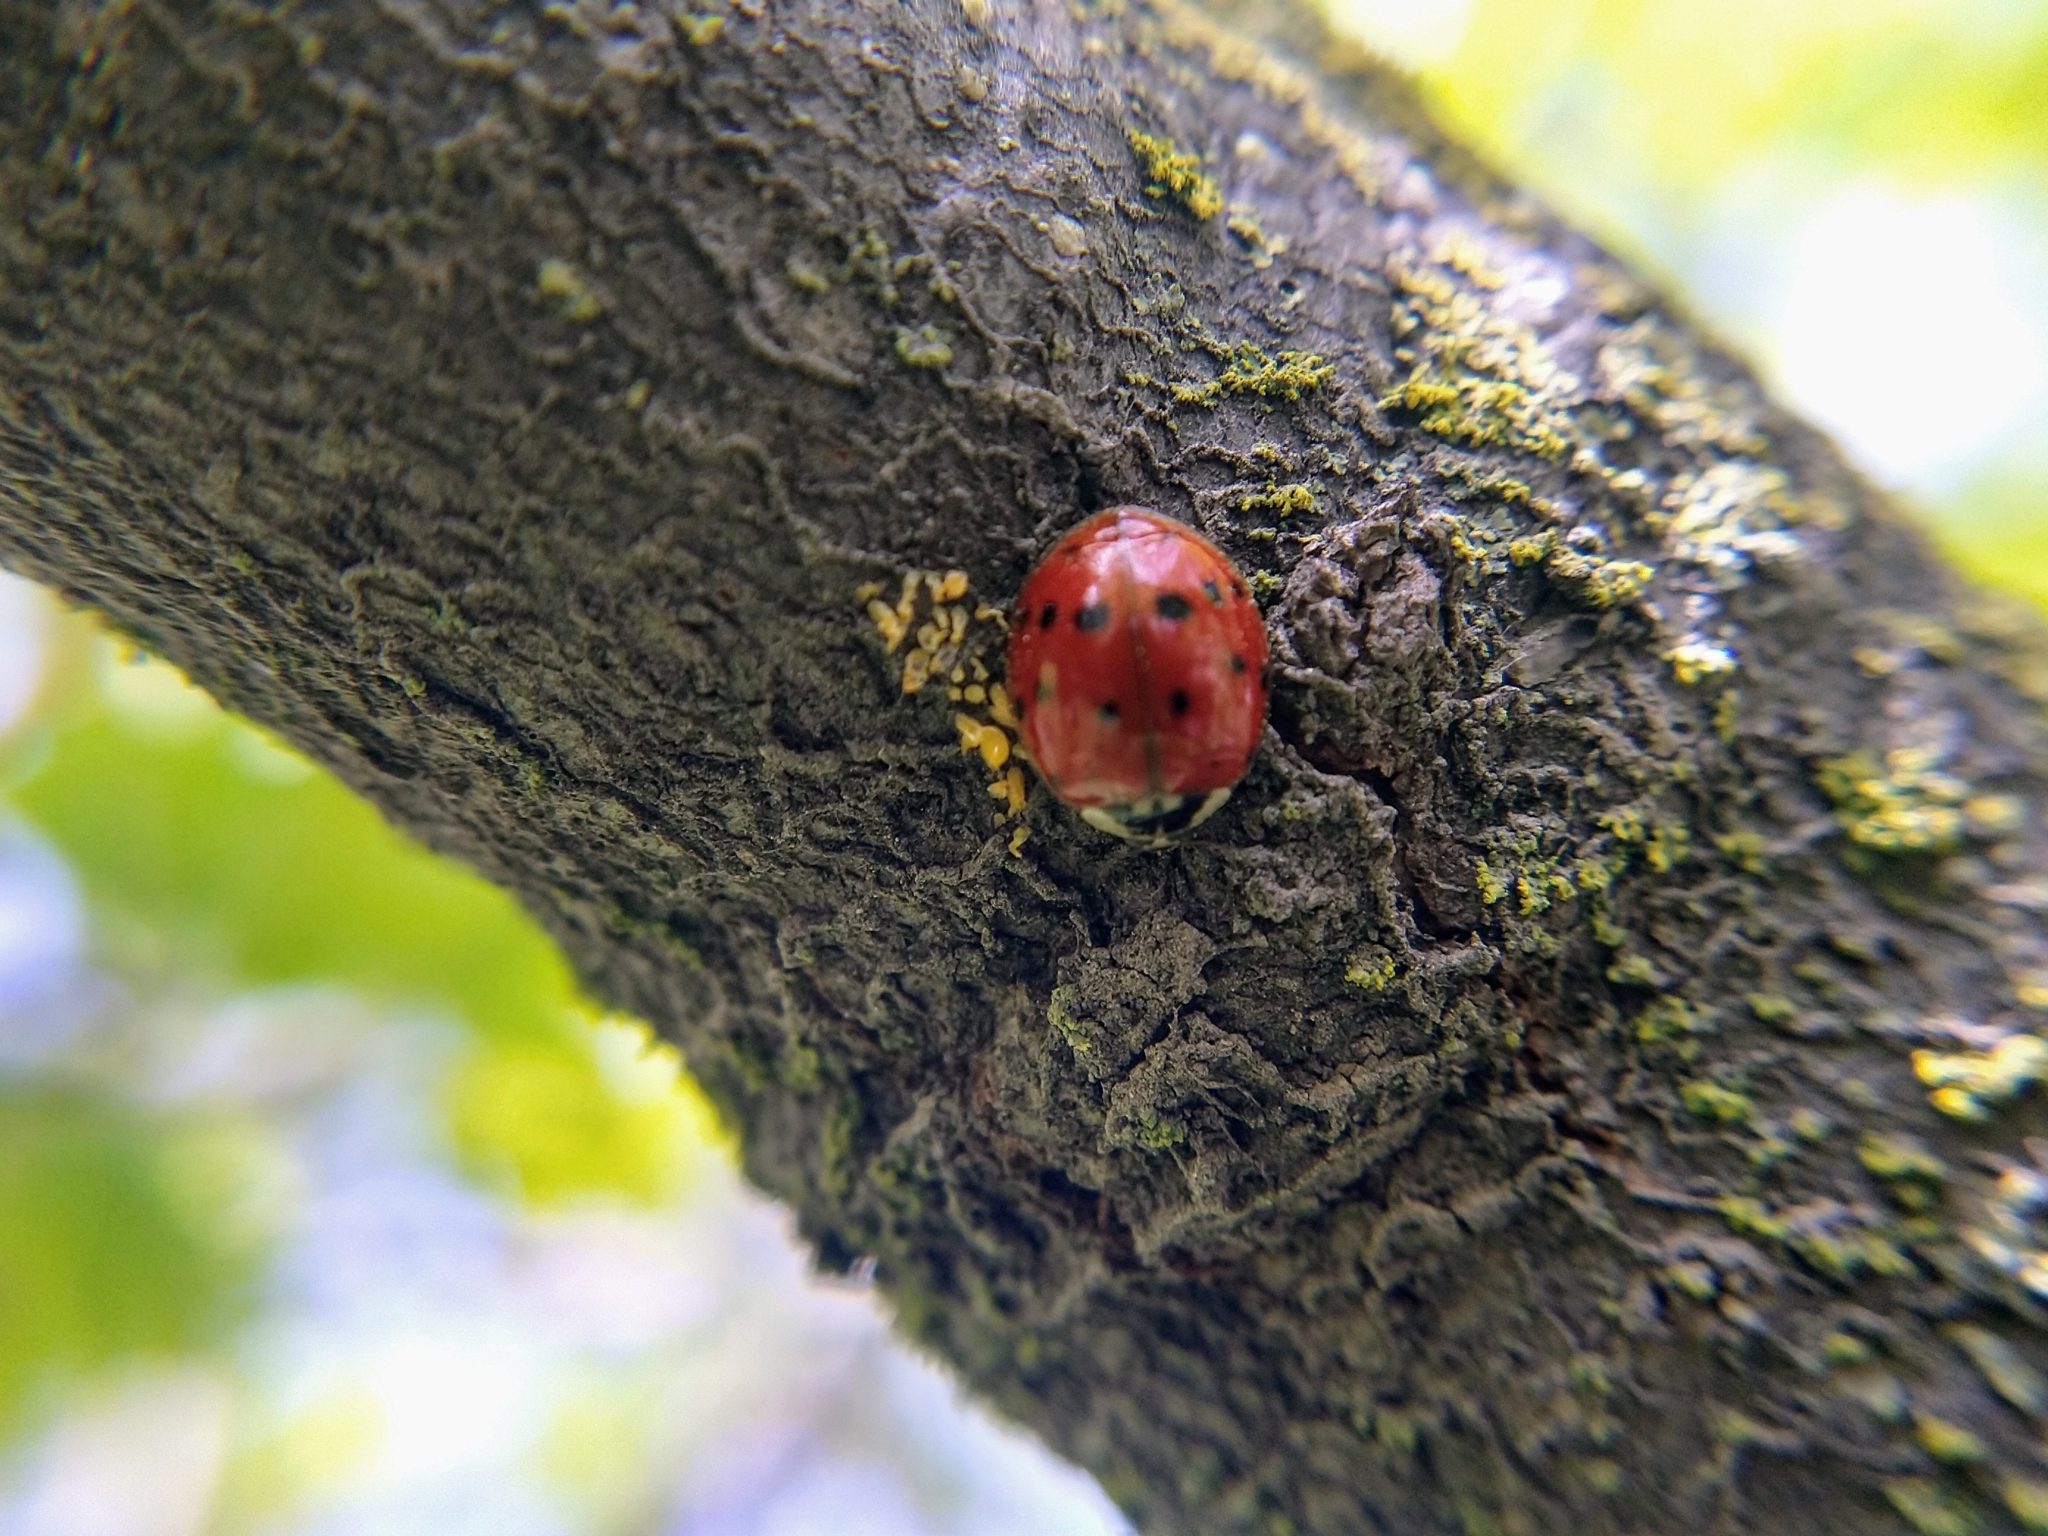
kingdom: Animalia
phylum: Arthropoda
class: Insecta
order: Coleoptera
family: Coccinellidae
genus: Harmonia
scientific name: Harmonia axyridis
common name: Harlequin ladybird
